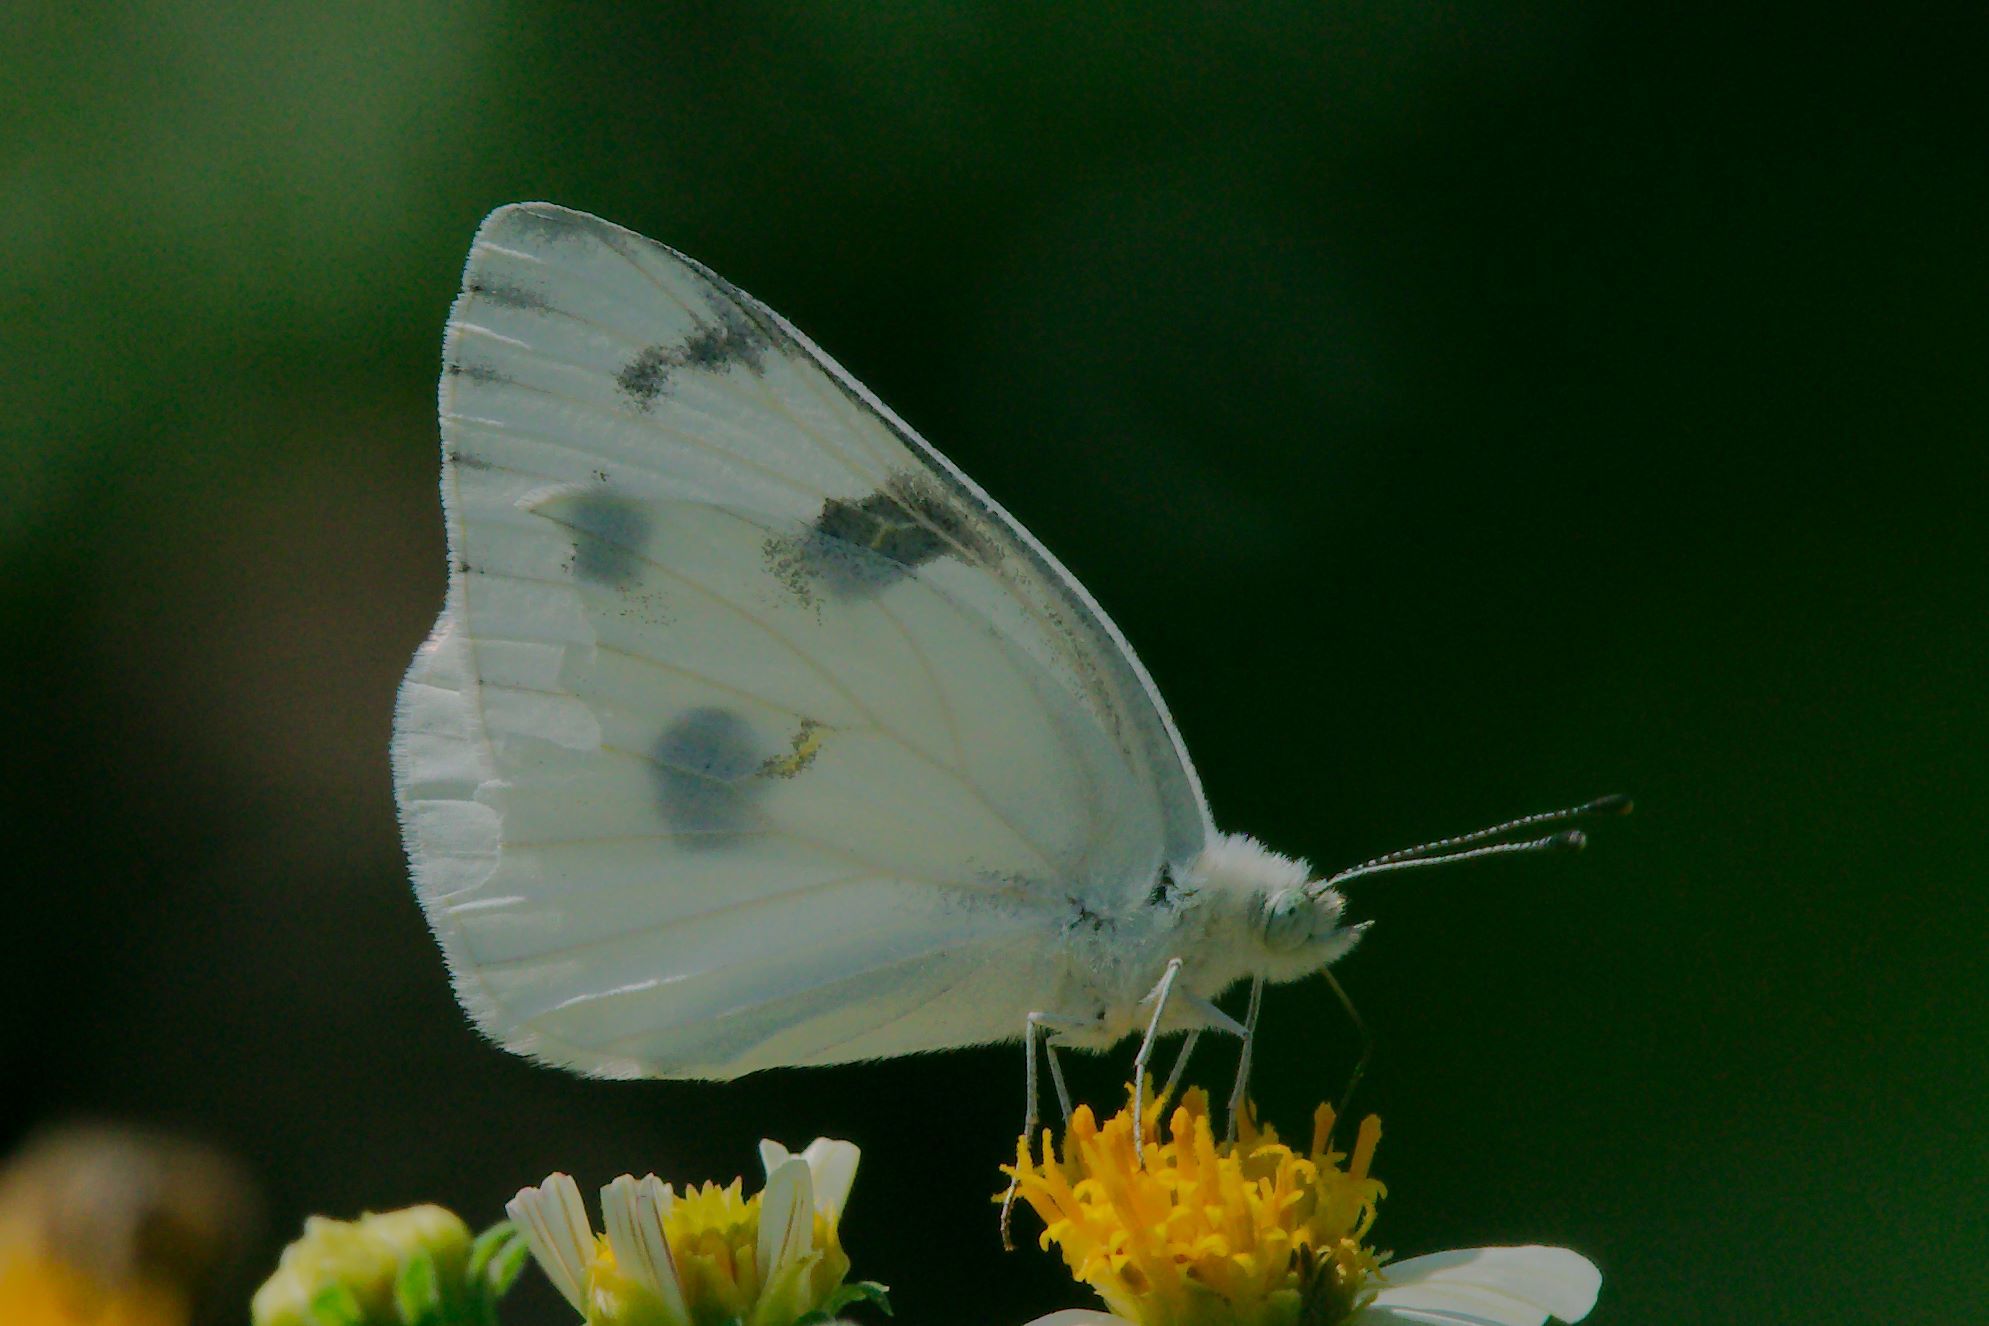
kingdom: Animalia
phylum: Arthropoda
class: Insecta
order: Lepidoptera
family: Pieridae
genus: Pontia
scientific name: Pontia protodice
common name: Checkered white
